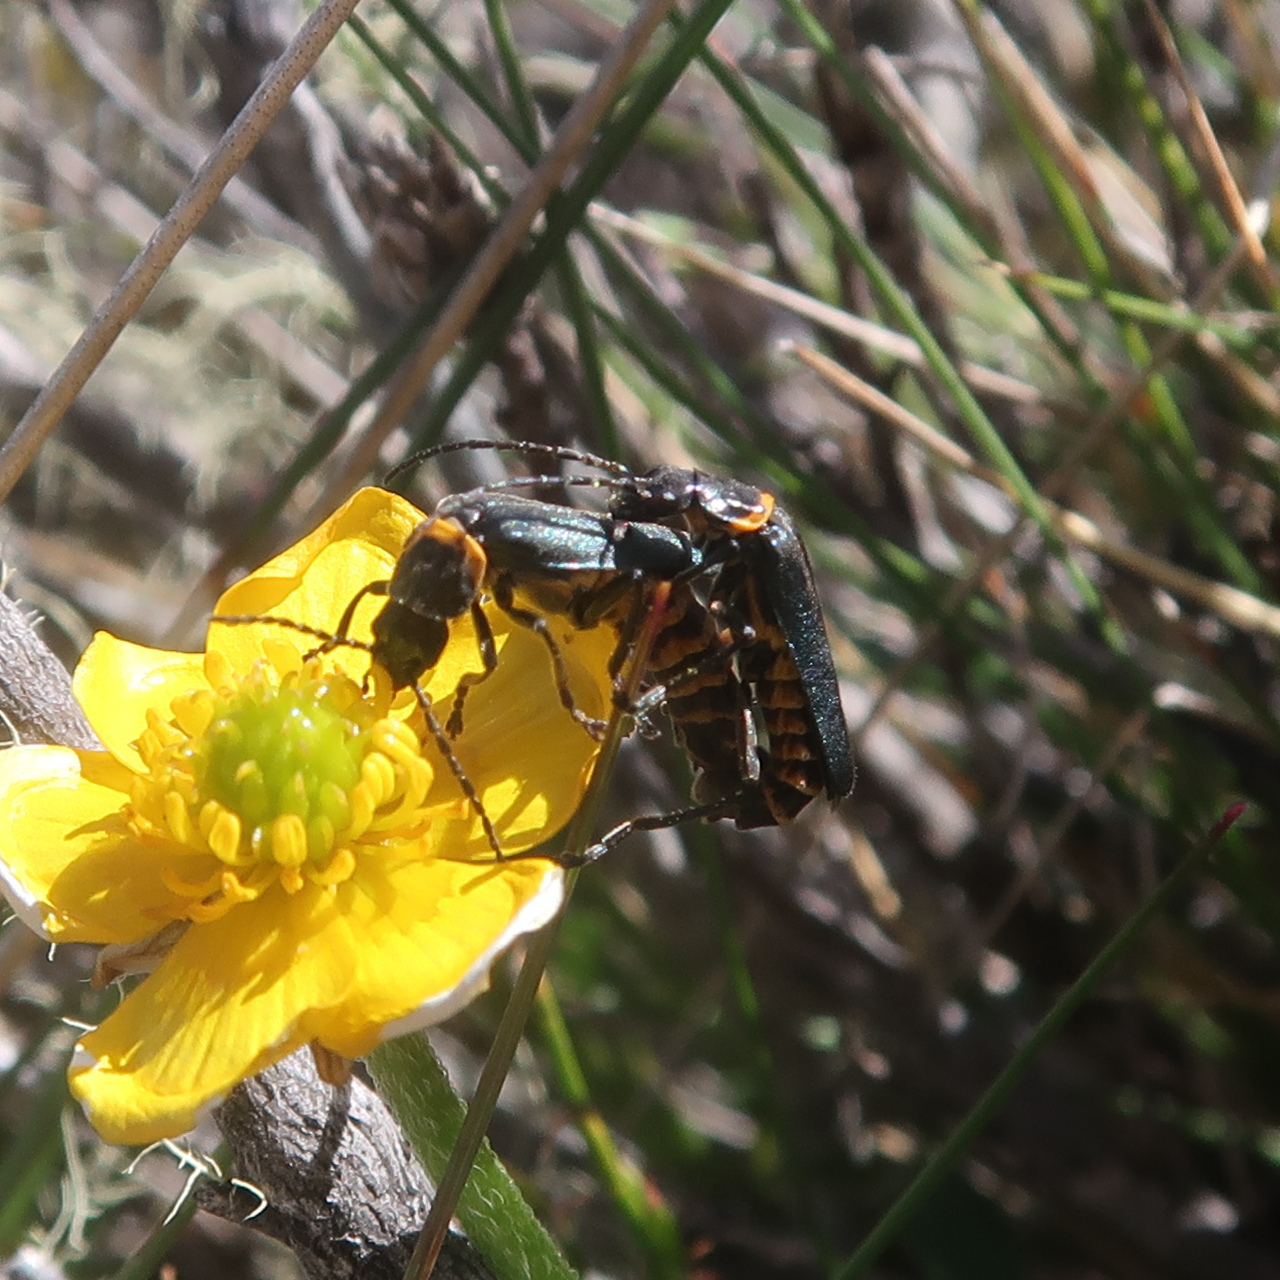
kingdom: Animalia
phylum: Arthropoda
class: Insecta
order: Coleoptera
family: Cantharidae
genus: Chauliognathus
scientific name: Chauliognathus
